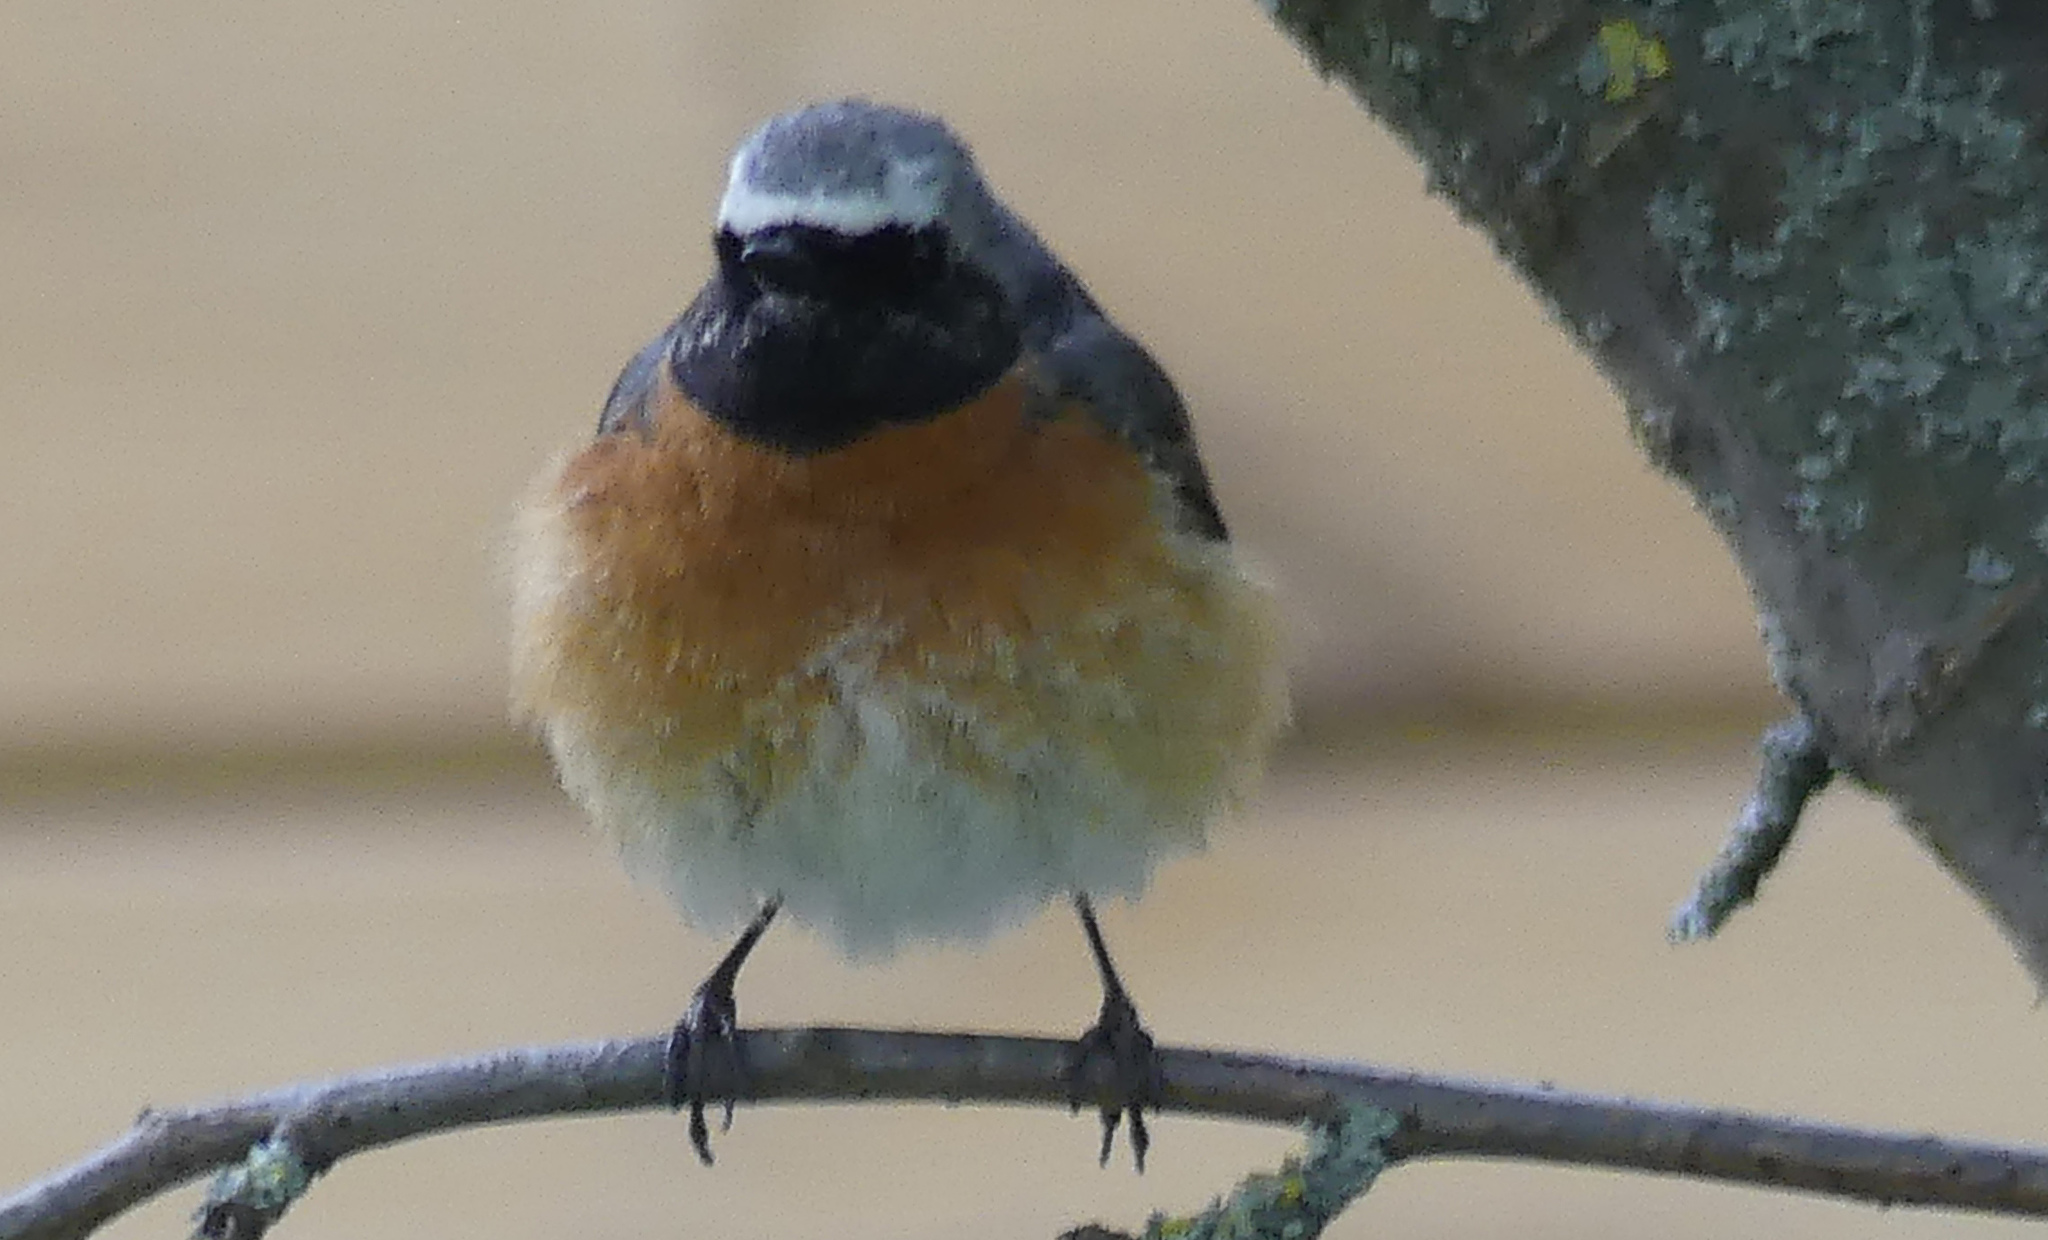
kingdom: Animalia
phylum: Chordata
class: Aves
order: Passeriformes
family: Muscicapidae
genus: Phoenicurus
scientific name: Phoenicurus phoenicurus
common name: Common redstart
